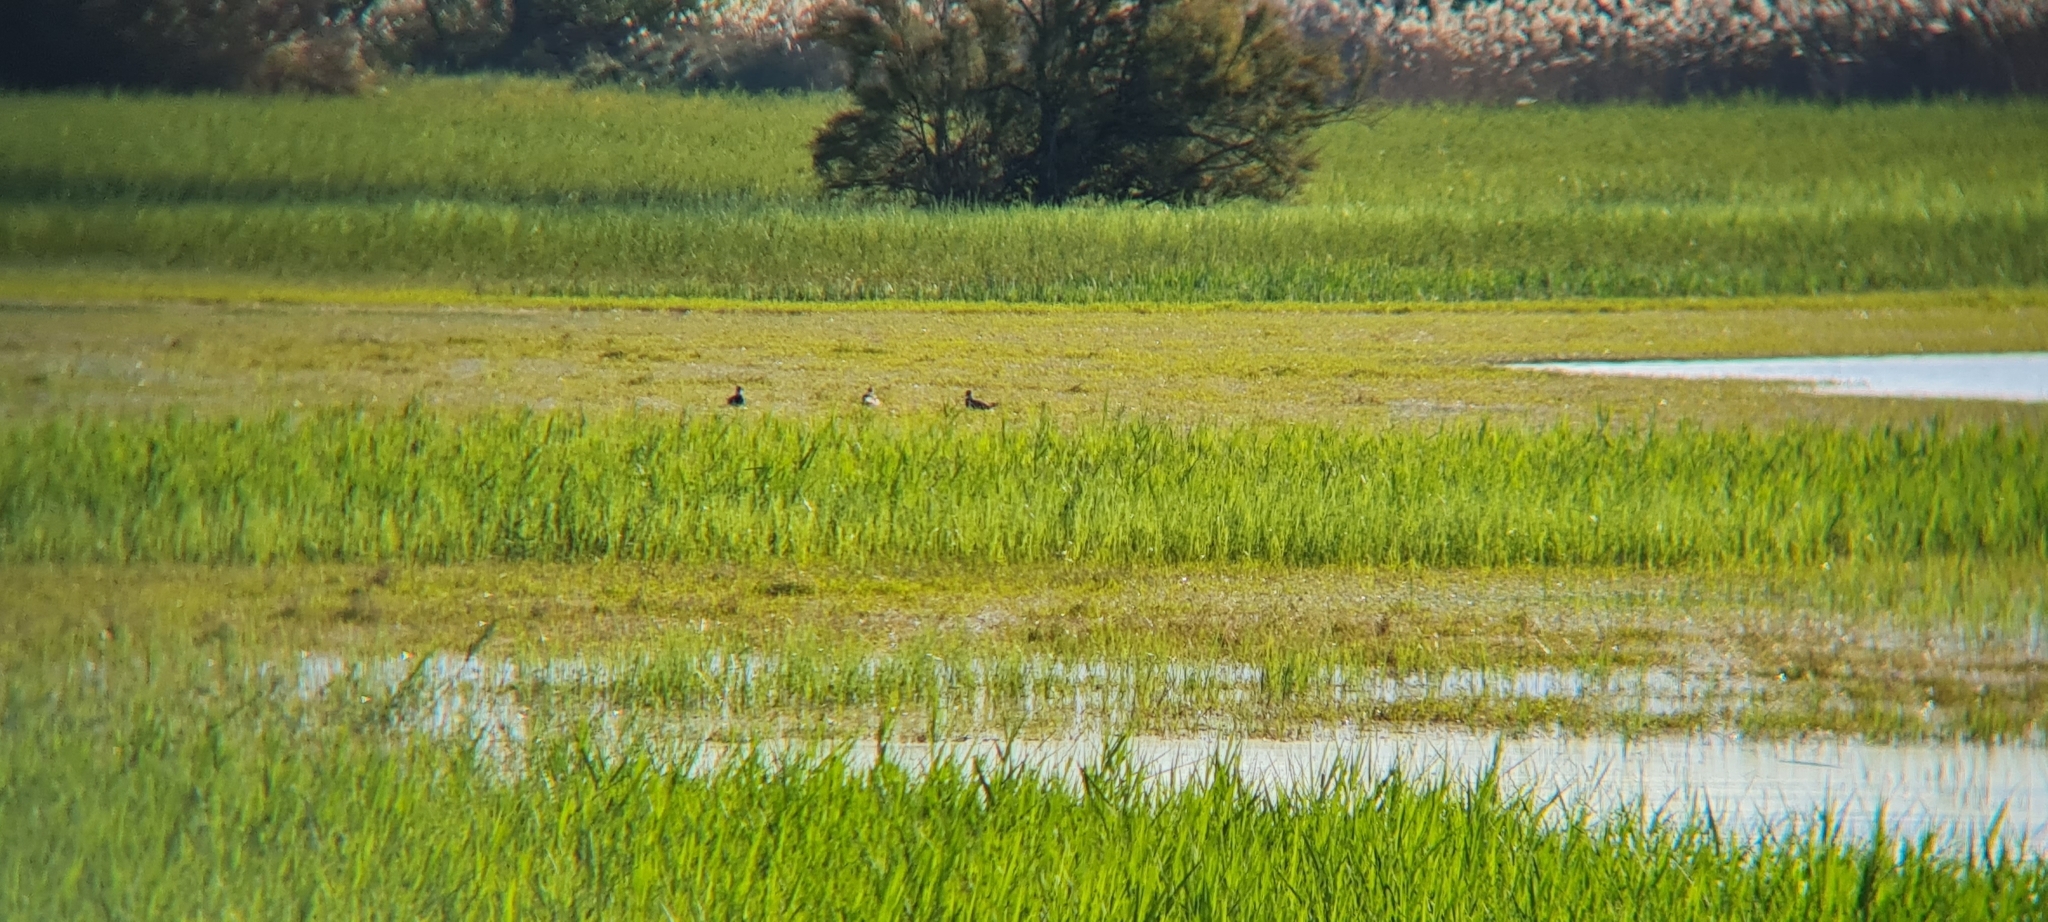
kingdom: Animalia
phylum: Chordata
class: Aves
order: Charadriiformes
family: Charadriidae
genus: Vanellus
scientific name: Vanellus vanellus
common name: Northern lapwing
